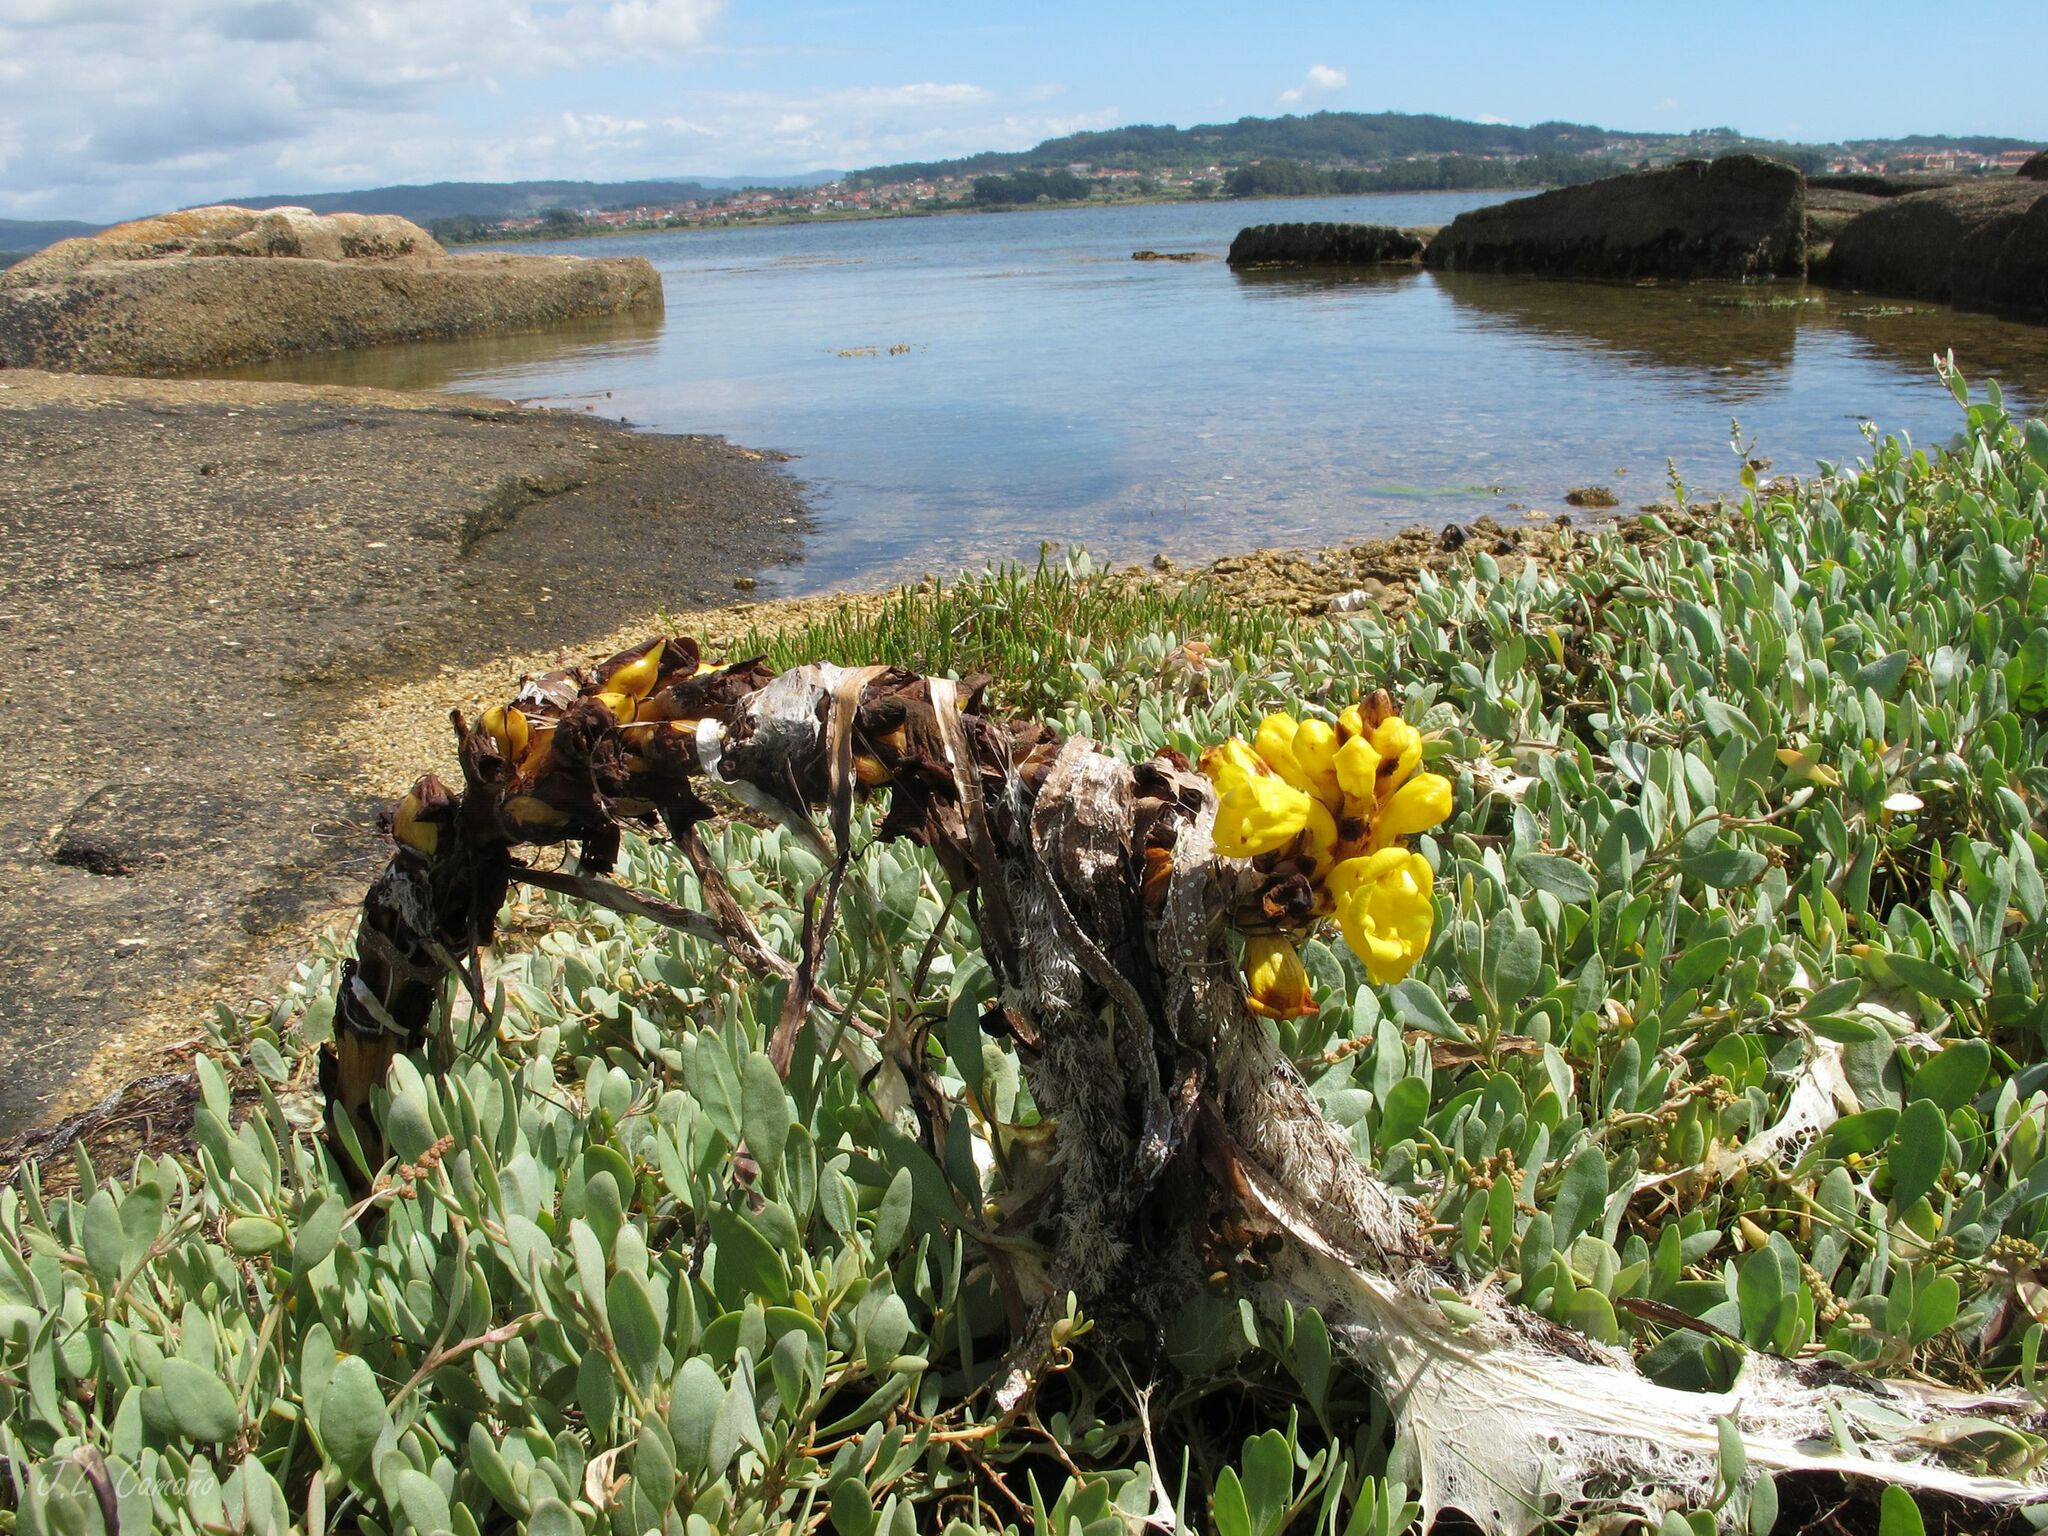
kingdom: Plantae
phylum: Tracheophyta
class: Magnoliopsida
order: Lamiales
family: Orobanchaceae
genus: Cistanche
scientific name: Cistanche phelypaea
